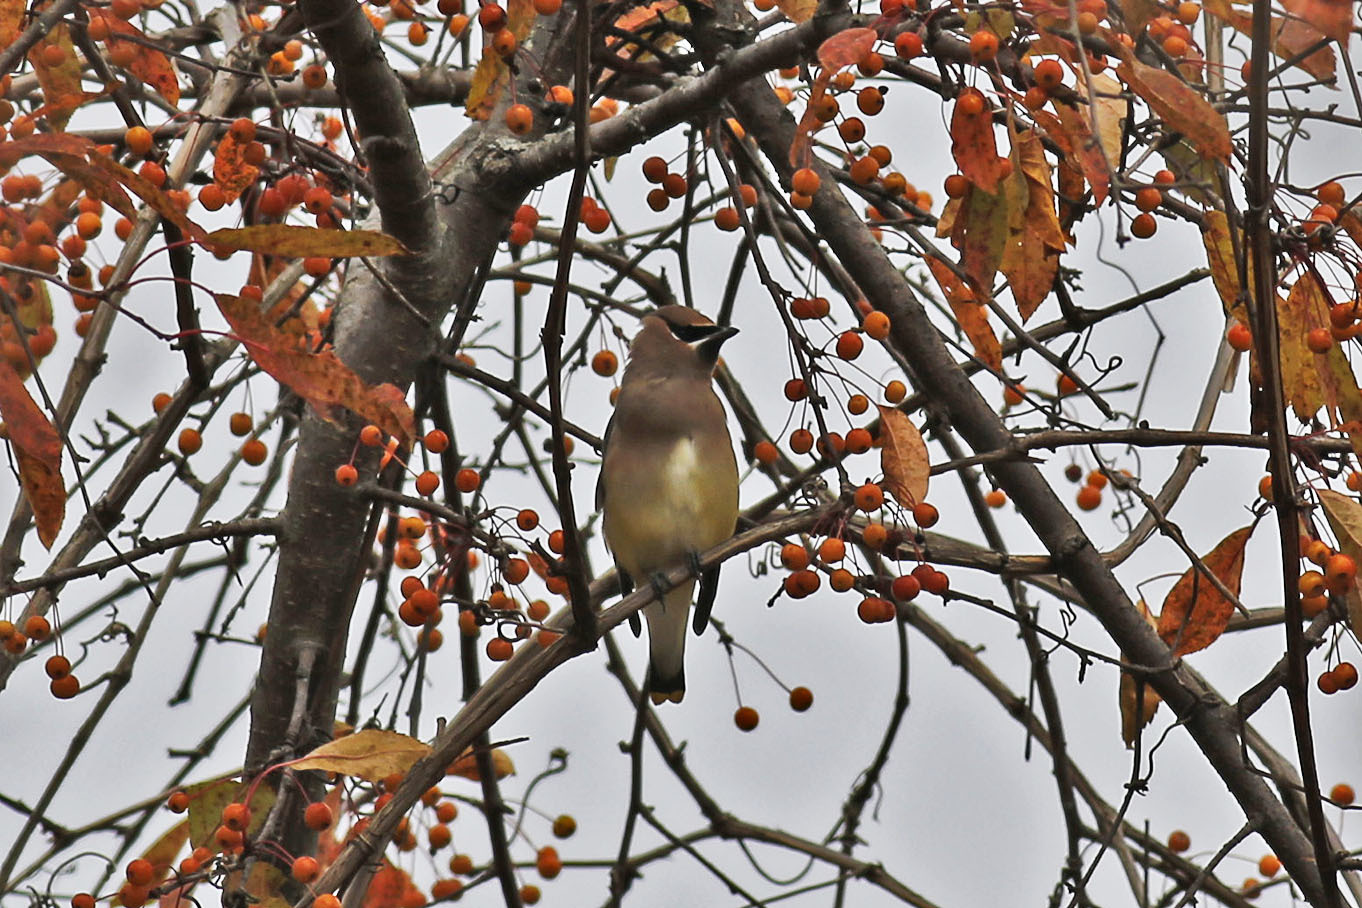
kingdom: Animalia
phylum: Chordata
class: Aves
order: Passeriformes
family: Bombycillidae
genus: Bombycilla
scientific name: Bombycilla cedrorum
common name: Cedar waxwing
